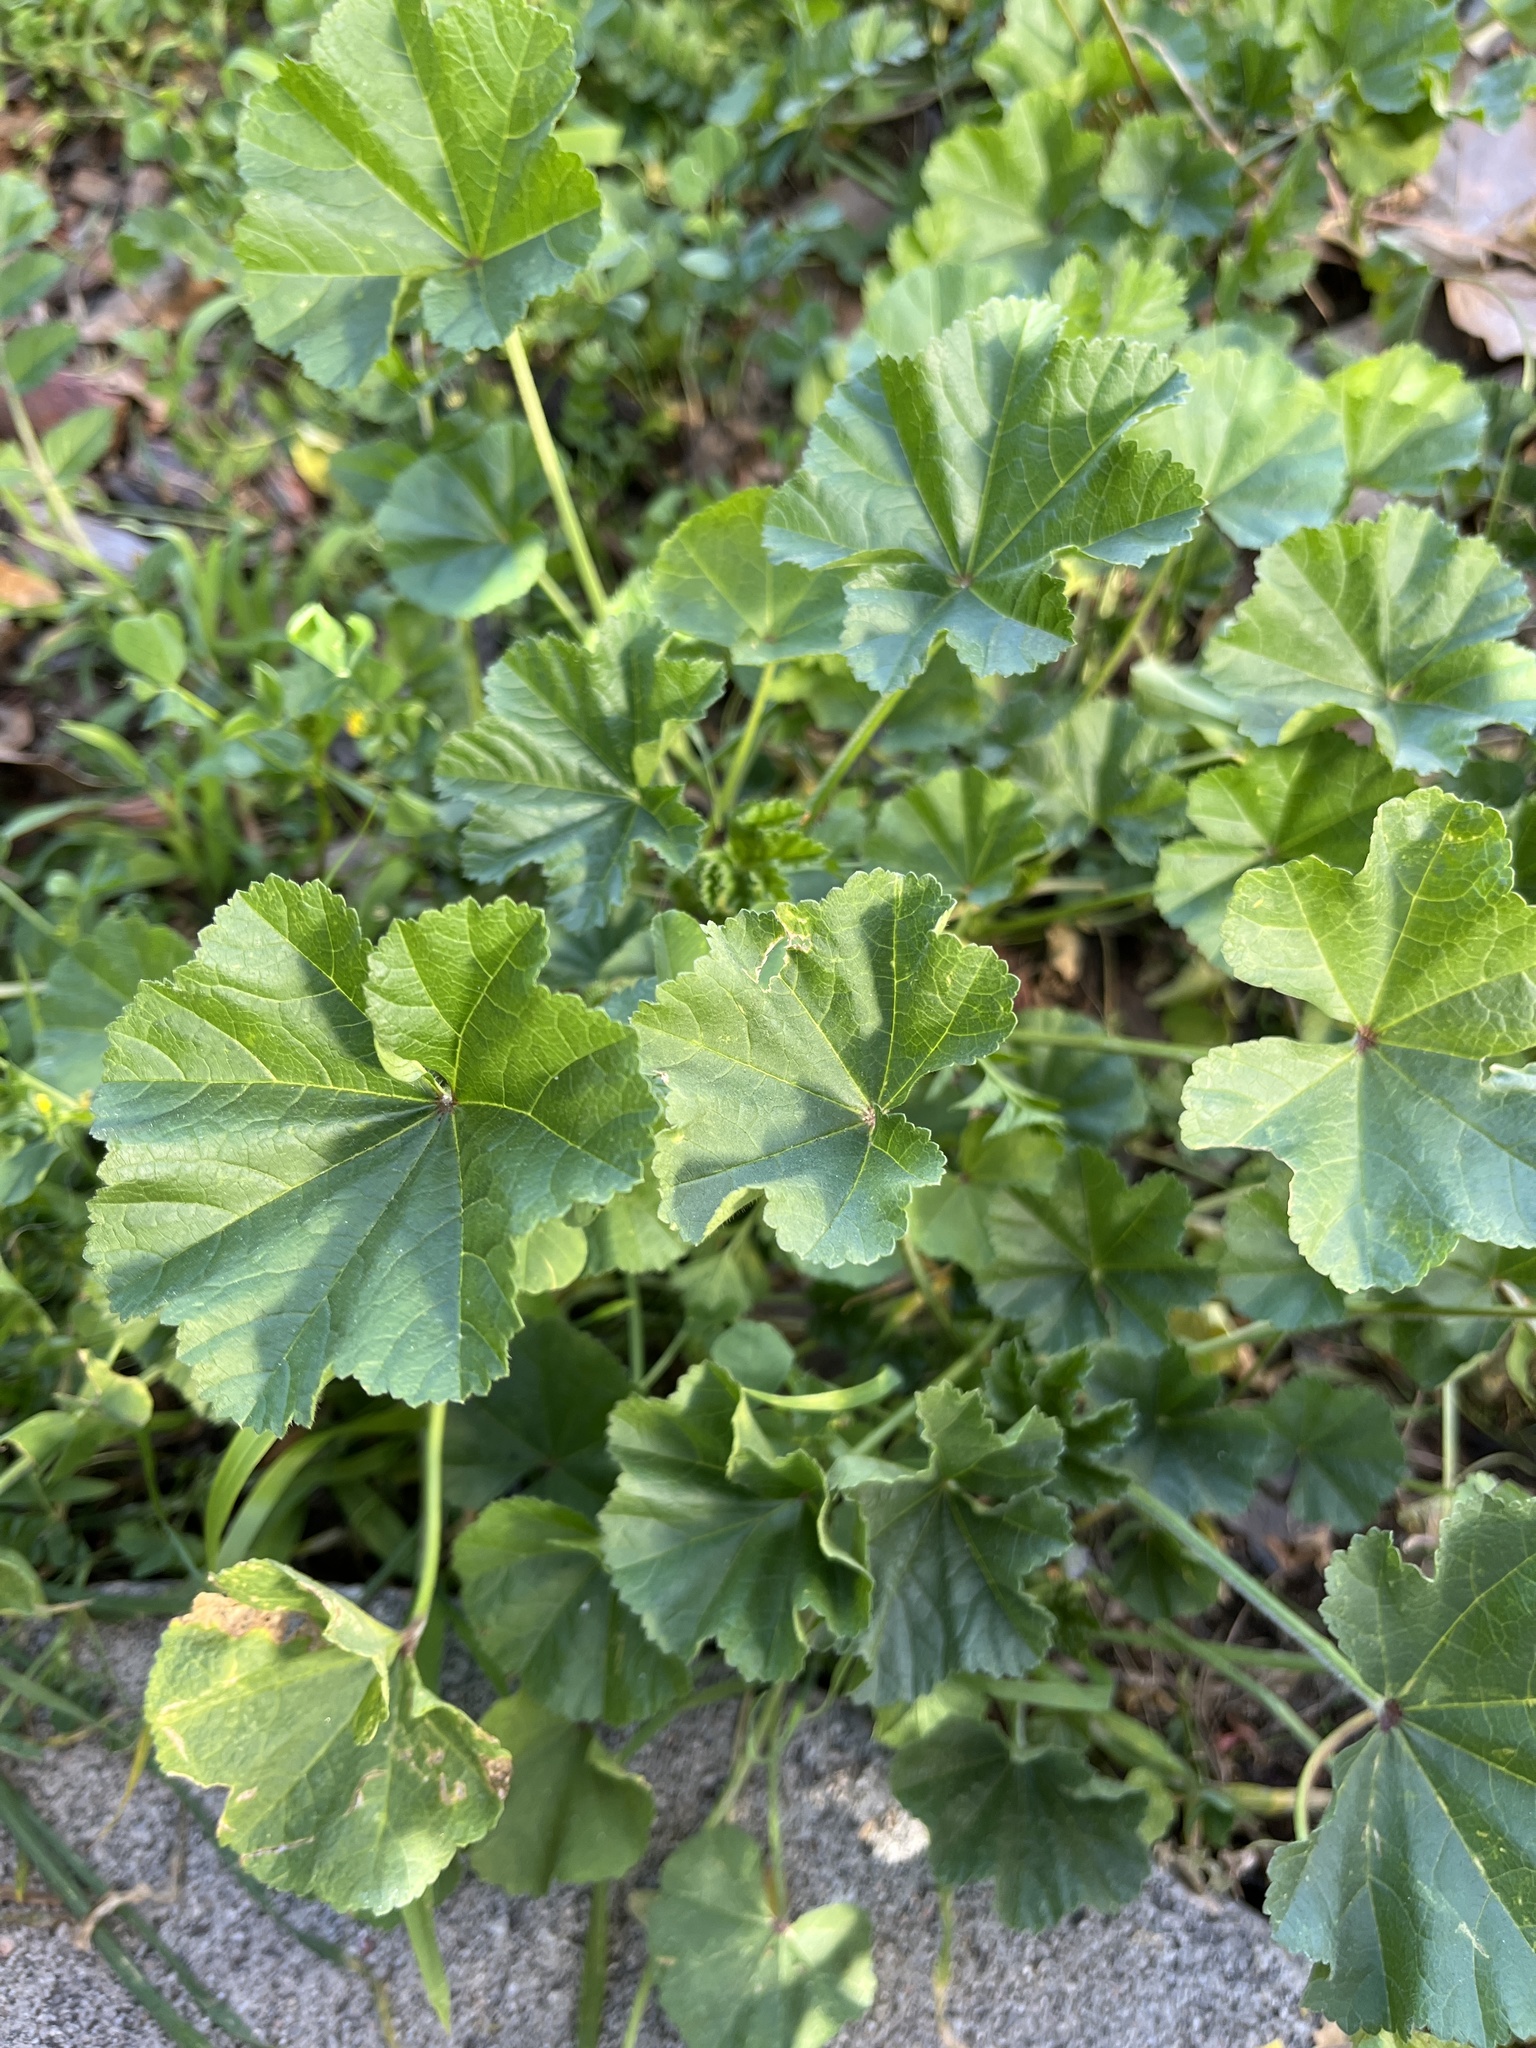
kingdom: Plantae
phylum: Tracheophyta
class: Magnoliopsida
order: Malvales
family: Malvaceae
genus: Malva
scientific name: Malva parviflora
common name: Least mallow
